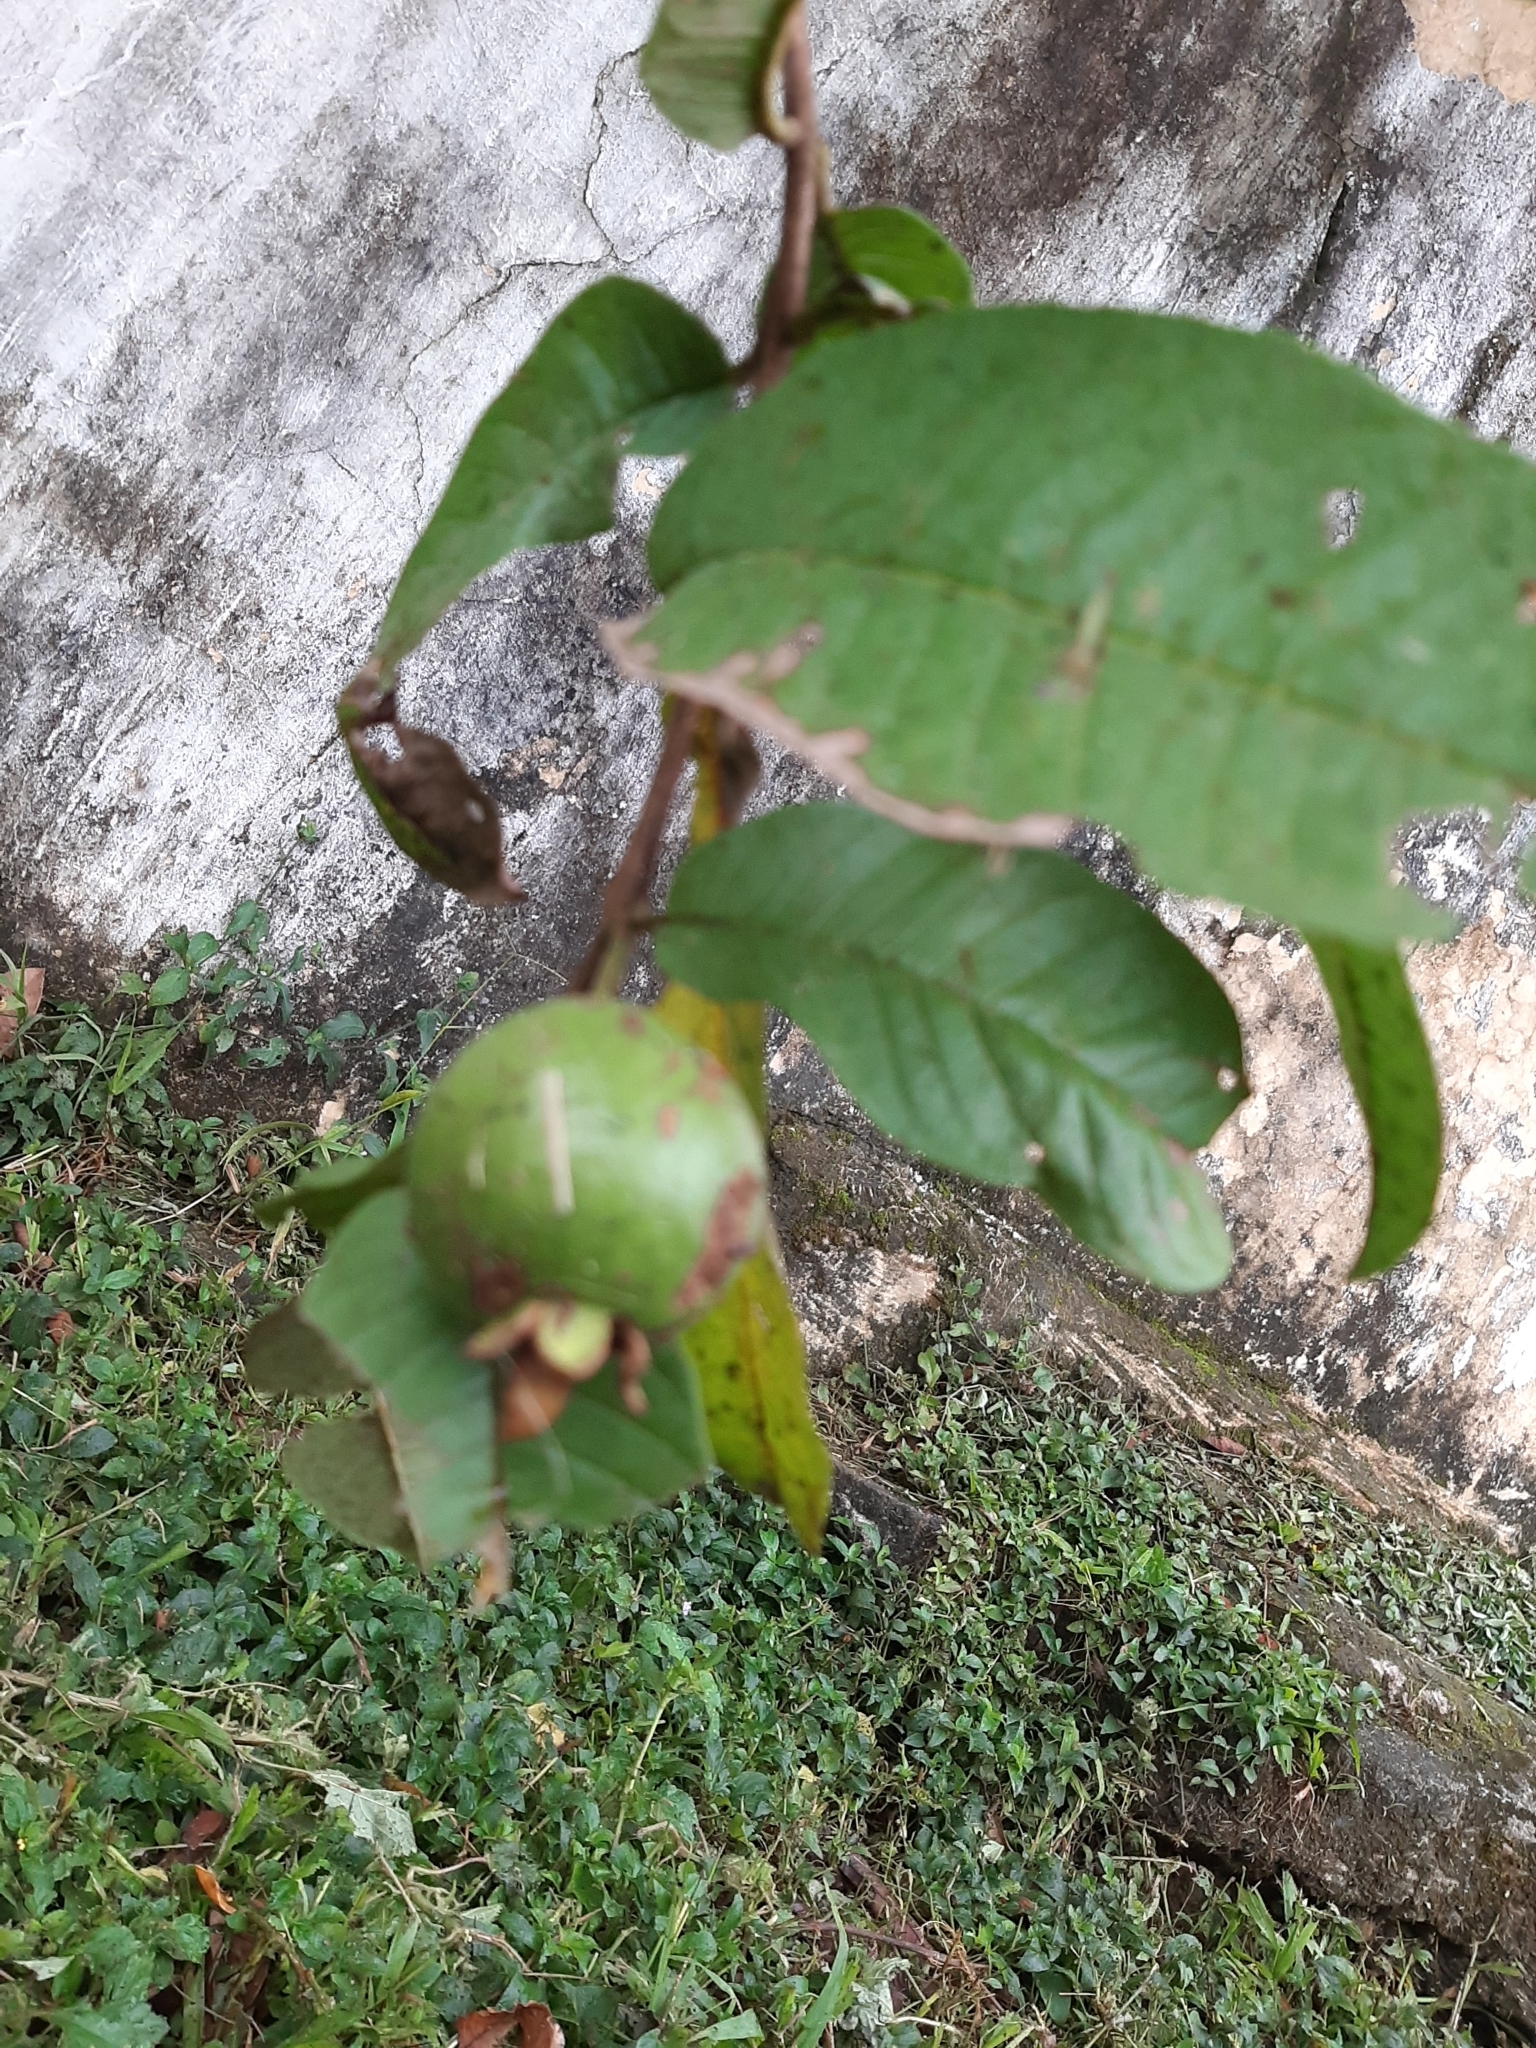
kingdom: Plantae
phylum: Tracheophyta
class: Magnoliopsida
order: Myrtales
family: Myrtaceae
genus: Psidium
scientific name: Psidium guajava
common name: Guava
